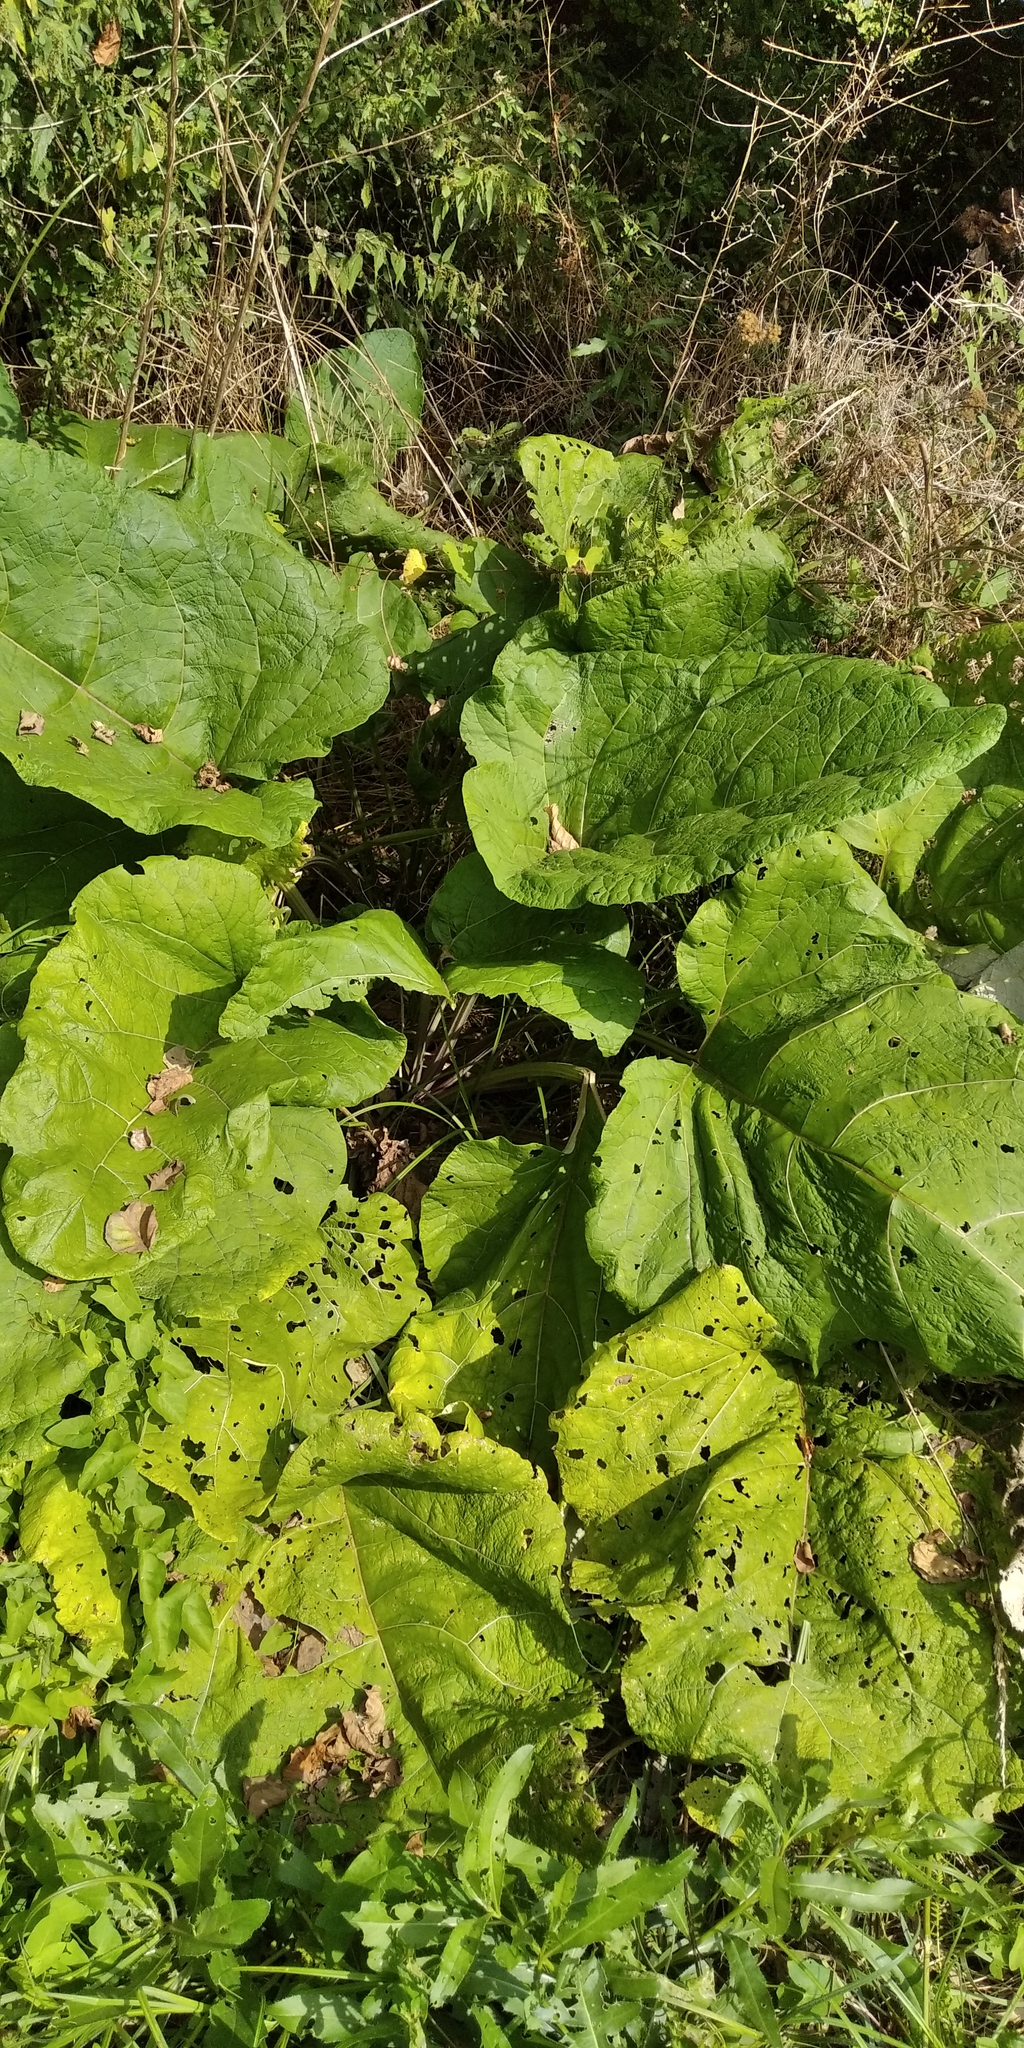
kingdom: Plantae
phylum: Tracheophyta
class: Magnoliopsida
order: Asterales
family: Asteraceae
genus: Arctium
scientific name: Arctium lappa
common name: Greater burdock
